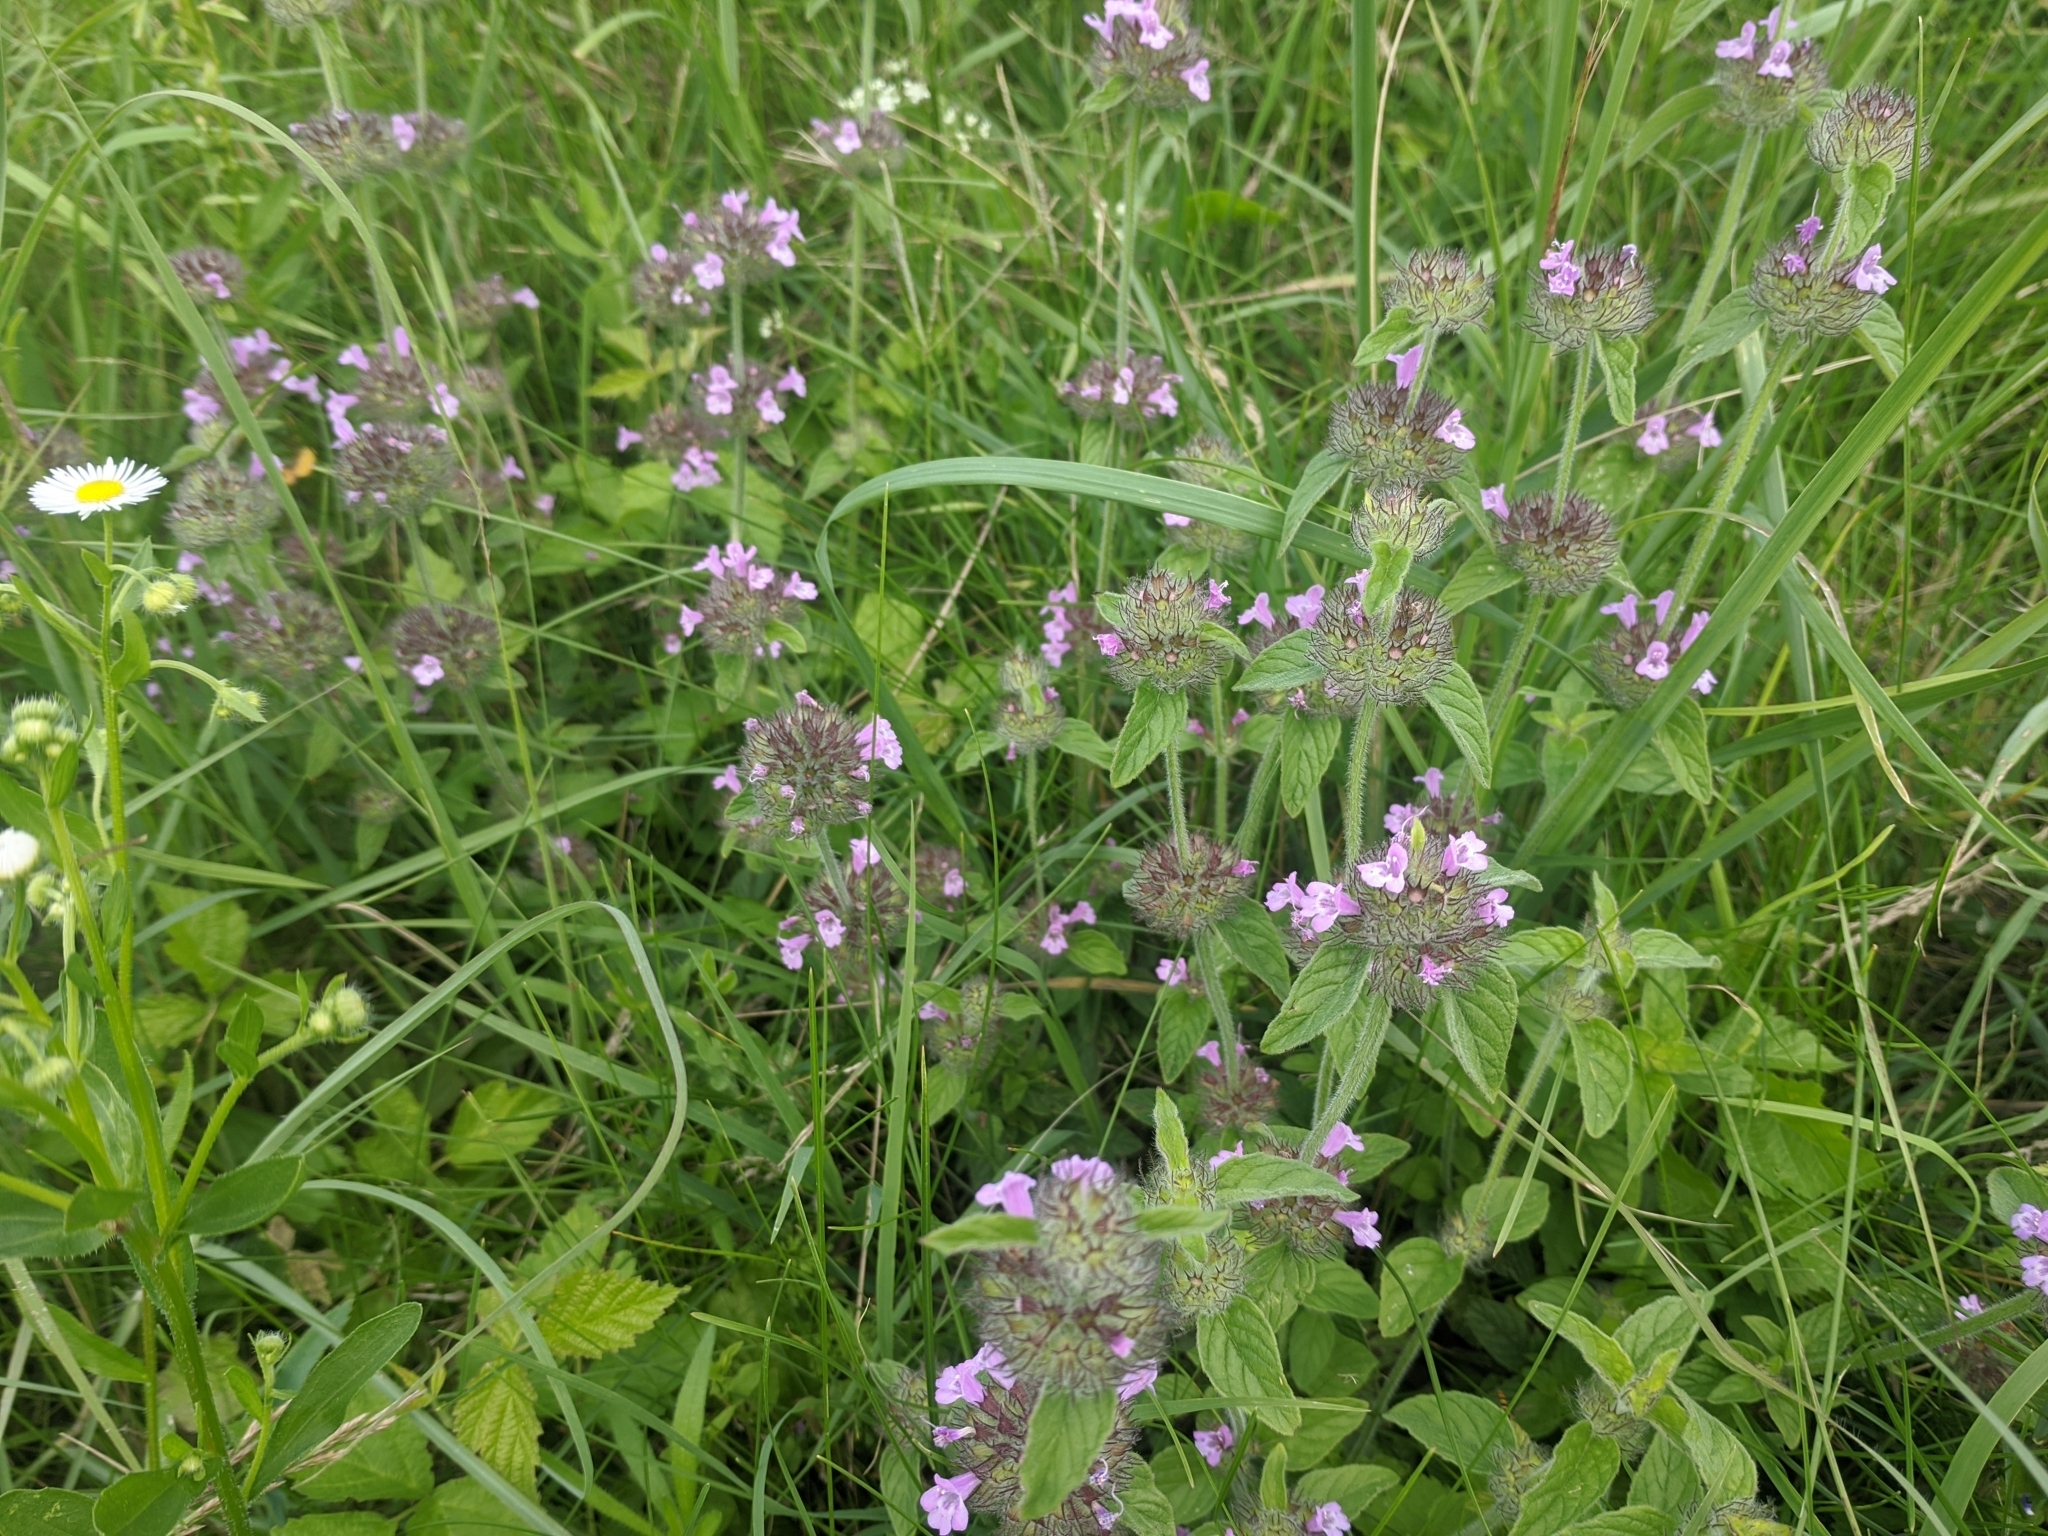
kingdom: Plantae
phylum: Tracheophyta
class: Magnoliopsida
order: Lamiales
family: Lamiaceae
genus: Clinopodium
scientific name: Clinopodium vulgare
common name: Wild basil
